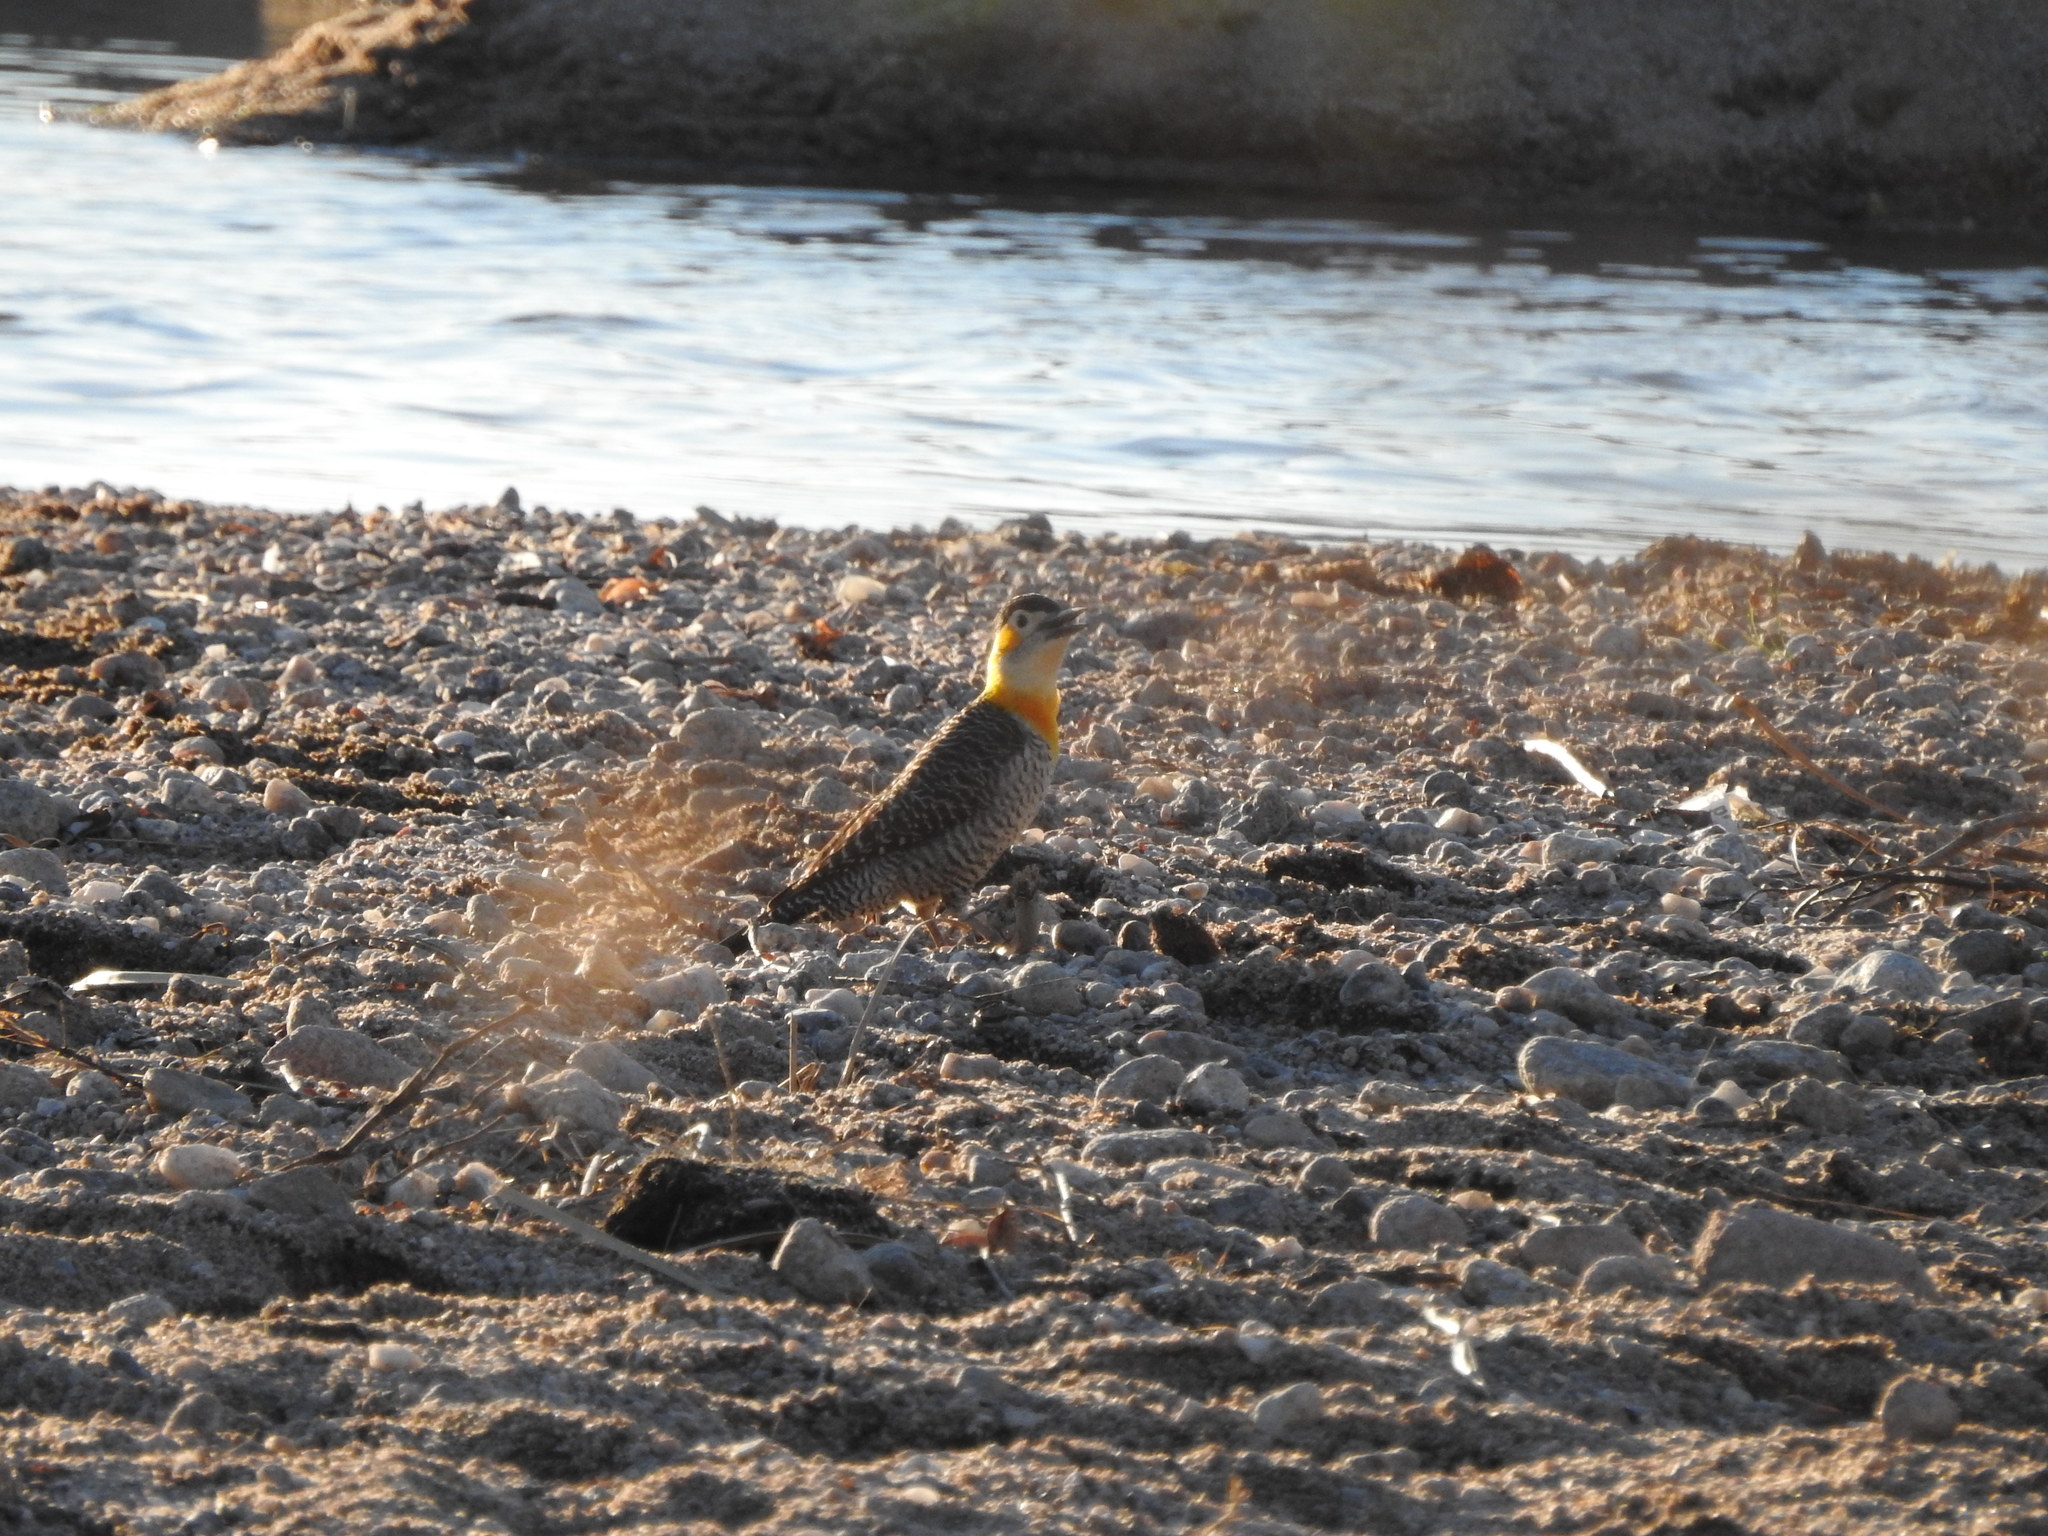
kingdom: Animalia
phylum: Chordata
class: Aves
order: Piciformes
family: Picidae
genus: Colaptes
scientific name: Colaptes campestris
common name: Campo flicker
